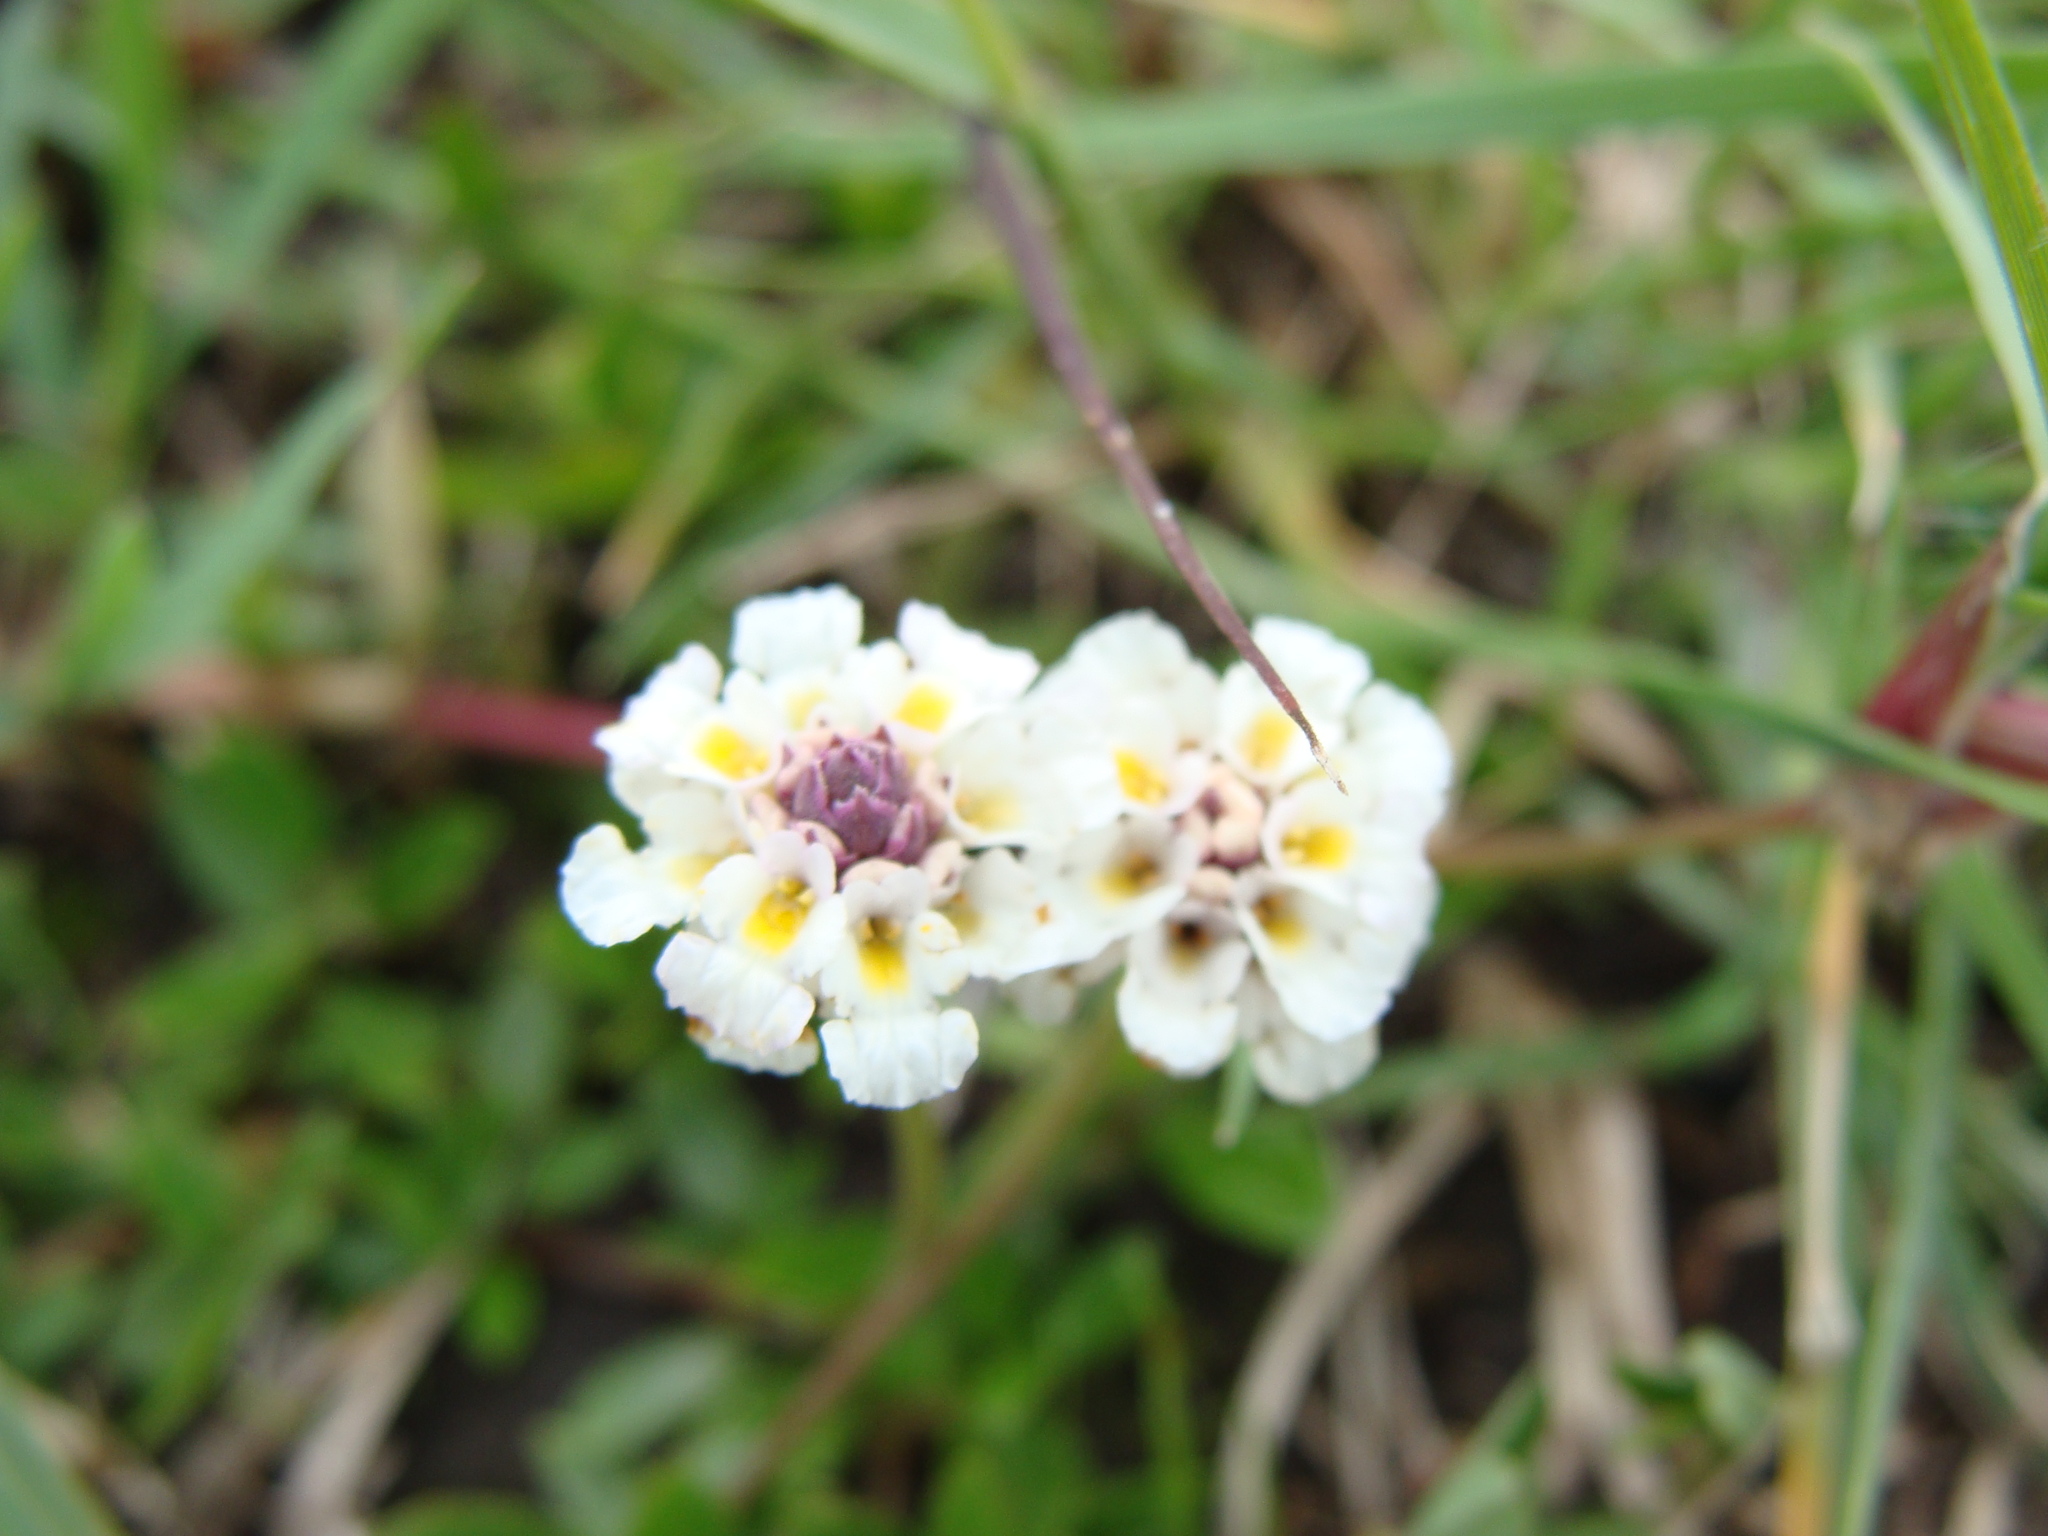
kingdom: Plantae
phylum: Tracheophyta
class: Magnoliopsida
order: Lamiales
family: Verbenaceae
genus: Phyla
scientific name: Phyla nodiflora
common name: Frogfruit
